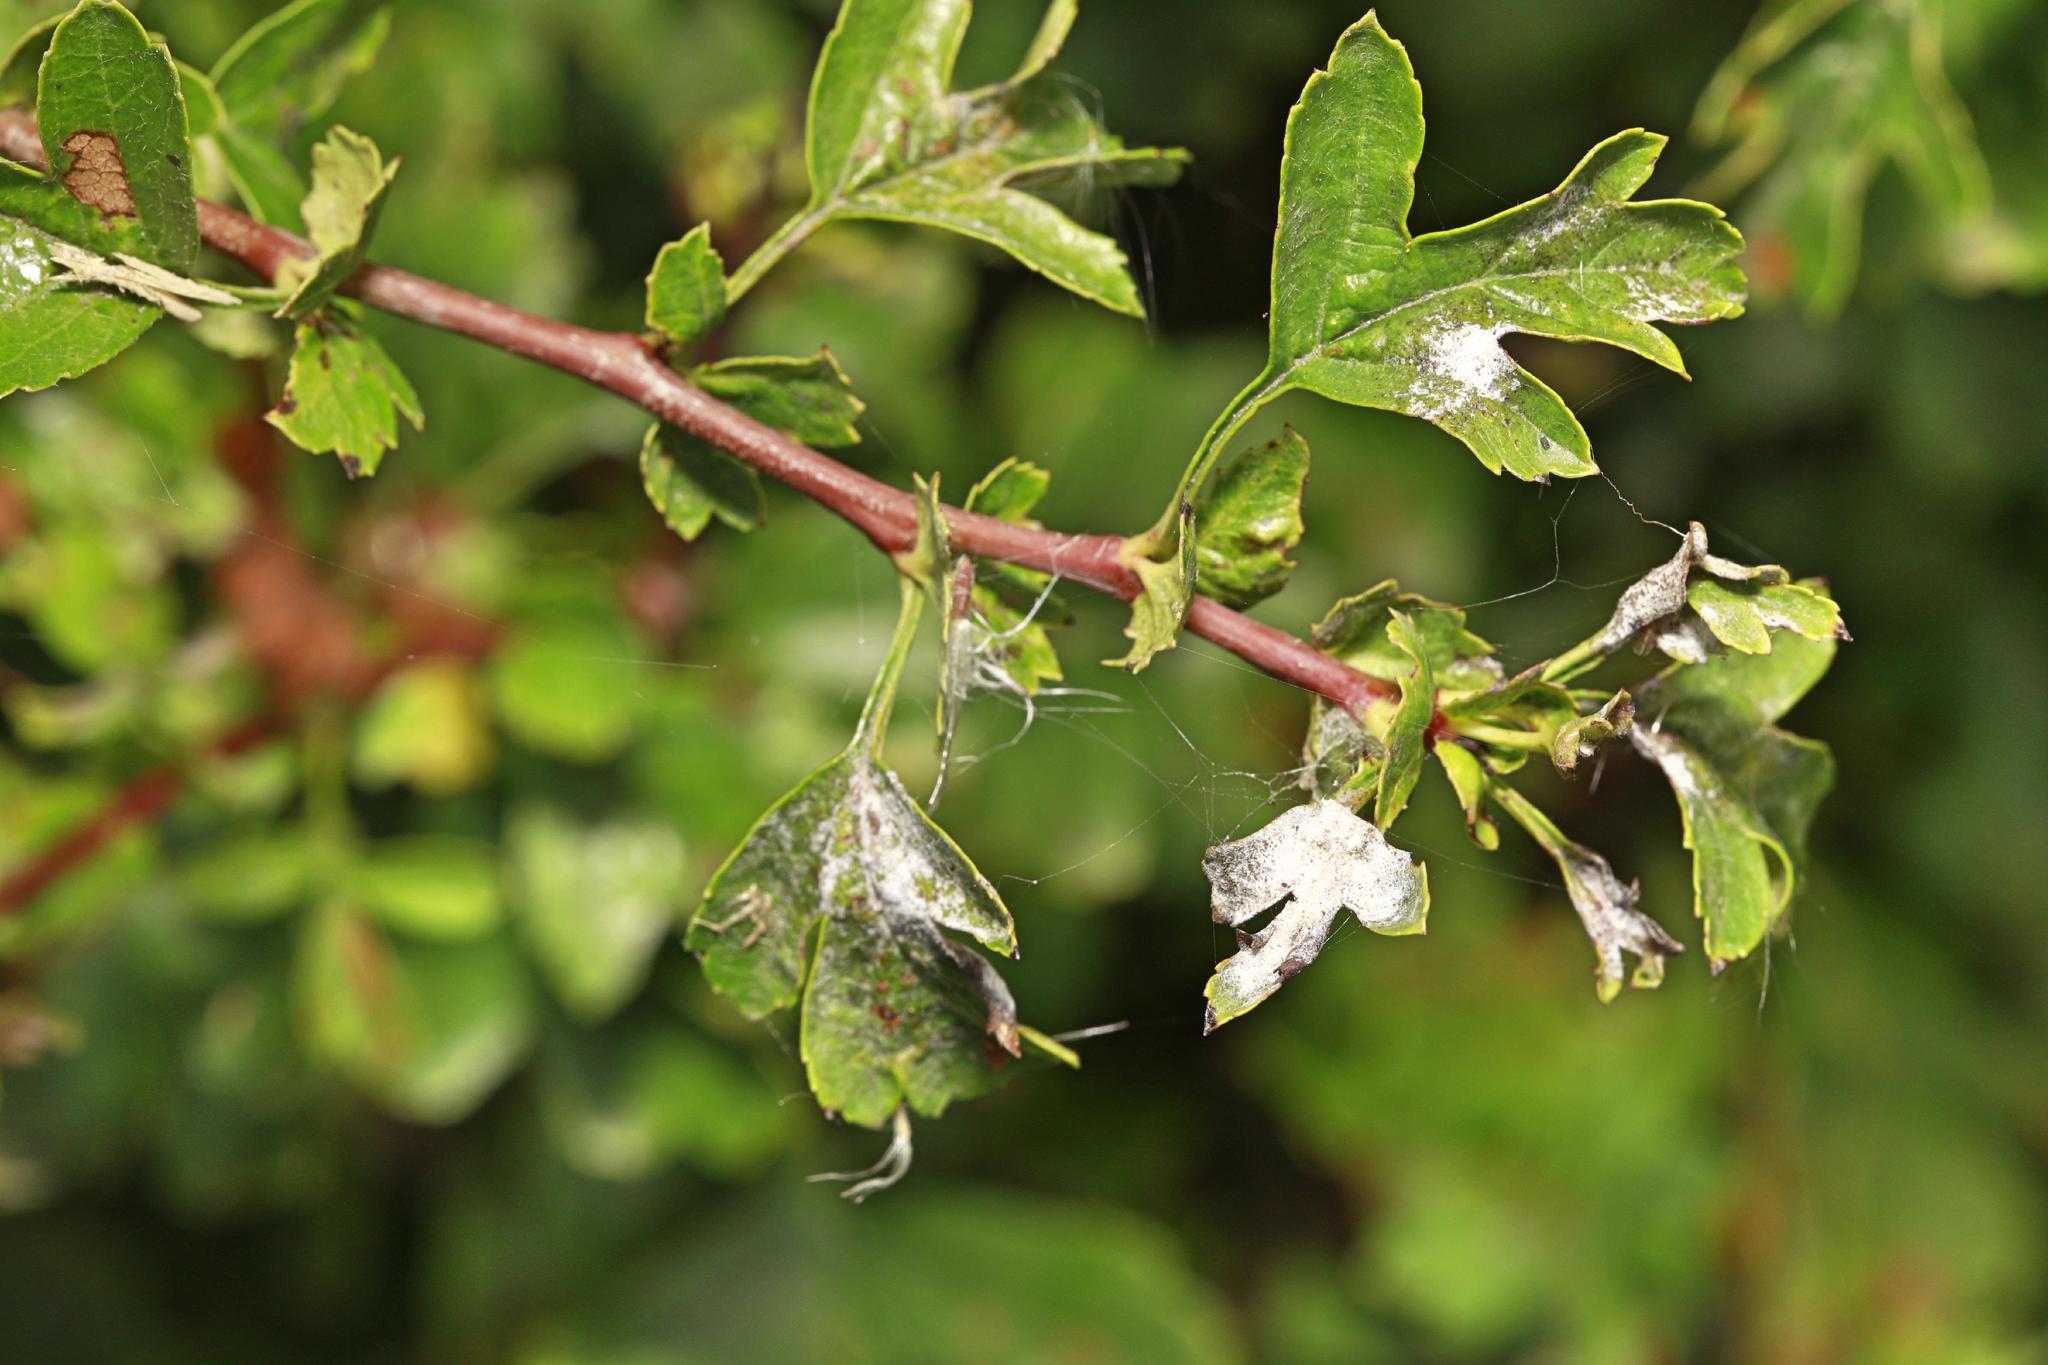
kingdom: Plantae
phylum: Tracheophyta
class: Magnoliopsida
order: Rosales
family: Rosaceae
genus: Crataegus
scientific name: Crataegus monogyna
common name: Hawthorn
